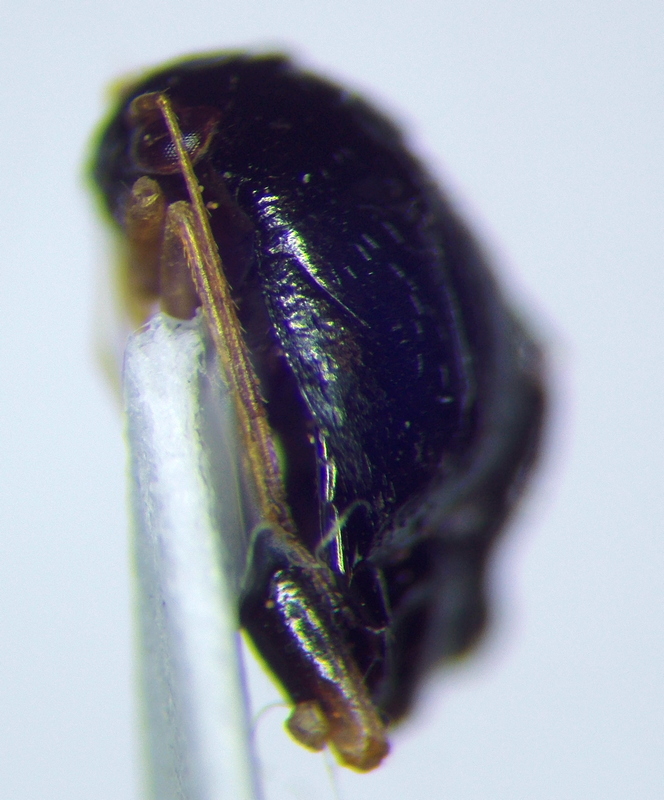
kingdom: Animalia
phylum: Arthropoda
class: Insecta
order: Hemiptera
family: Miridae
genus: Halticus
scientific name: Halticus apterus
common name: Fleahopper
